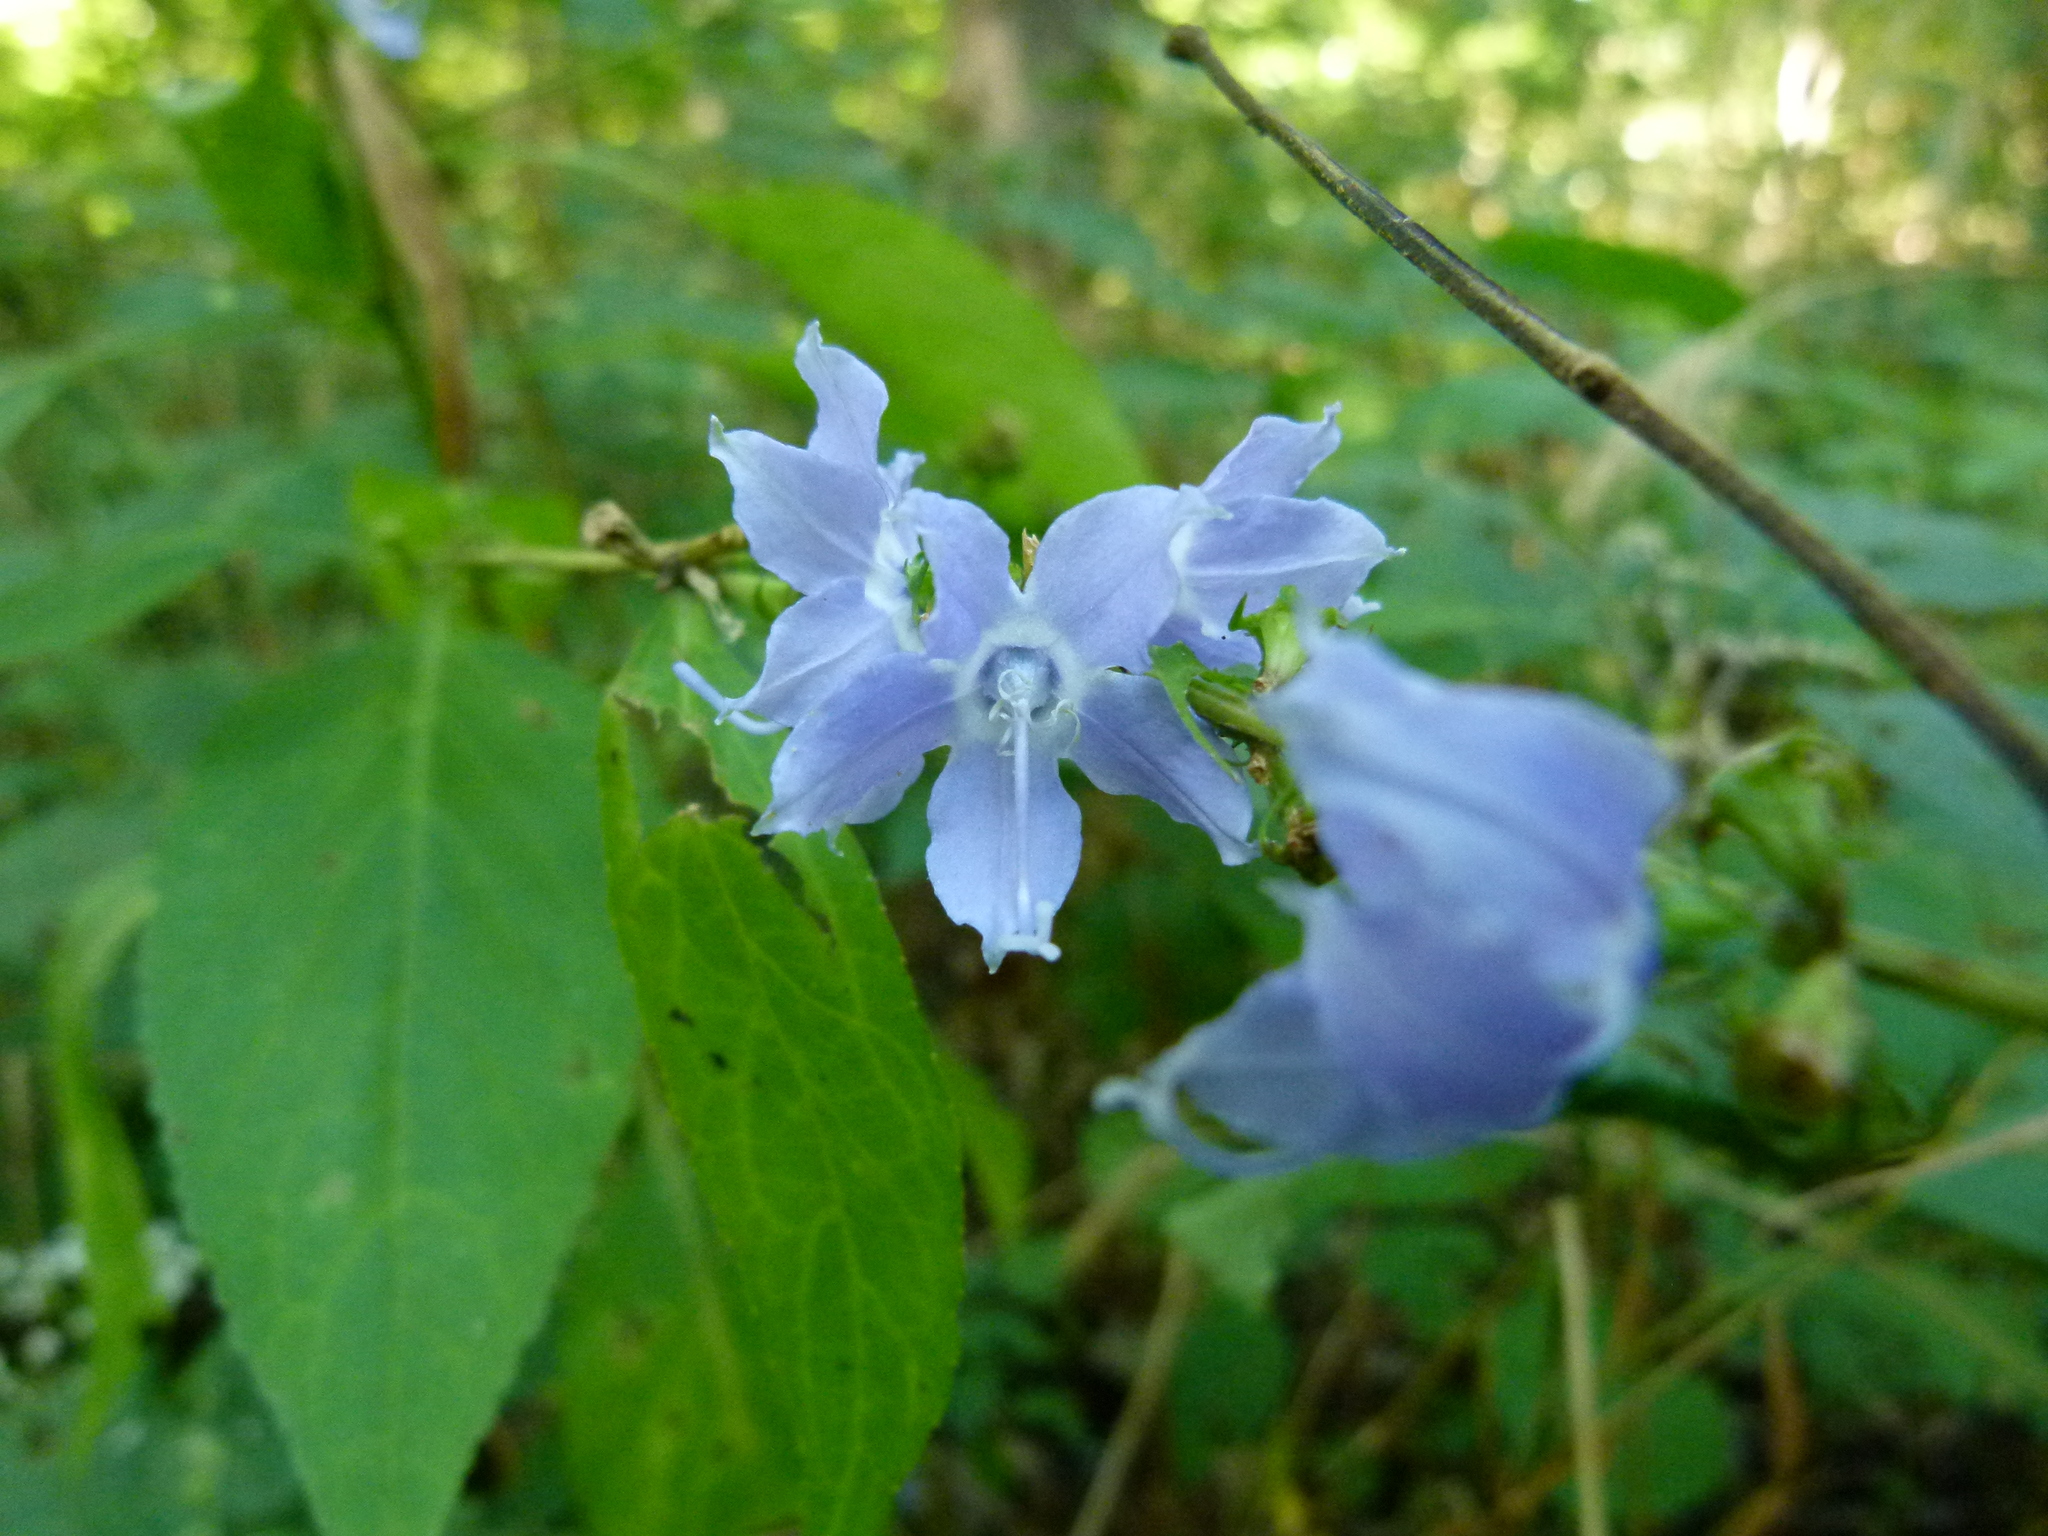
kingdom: Plantae
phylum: Tracheophyta
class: Magnoliopsida
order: Asterales
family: Campanulaceae
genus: Campanulastrum
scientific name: Campanulastrum americanum
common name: American bellflower
